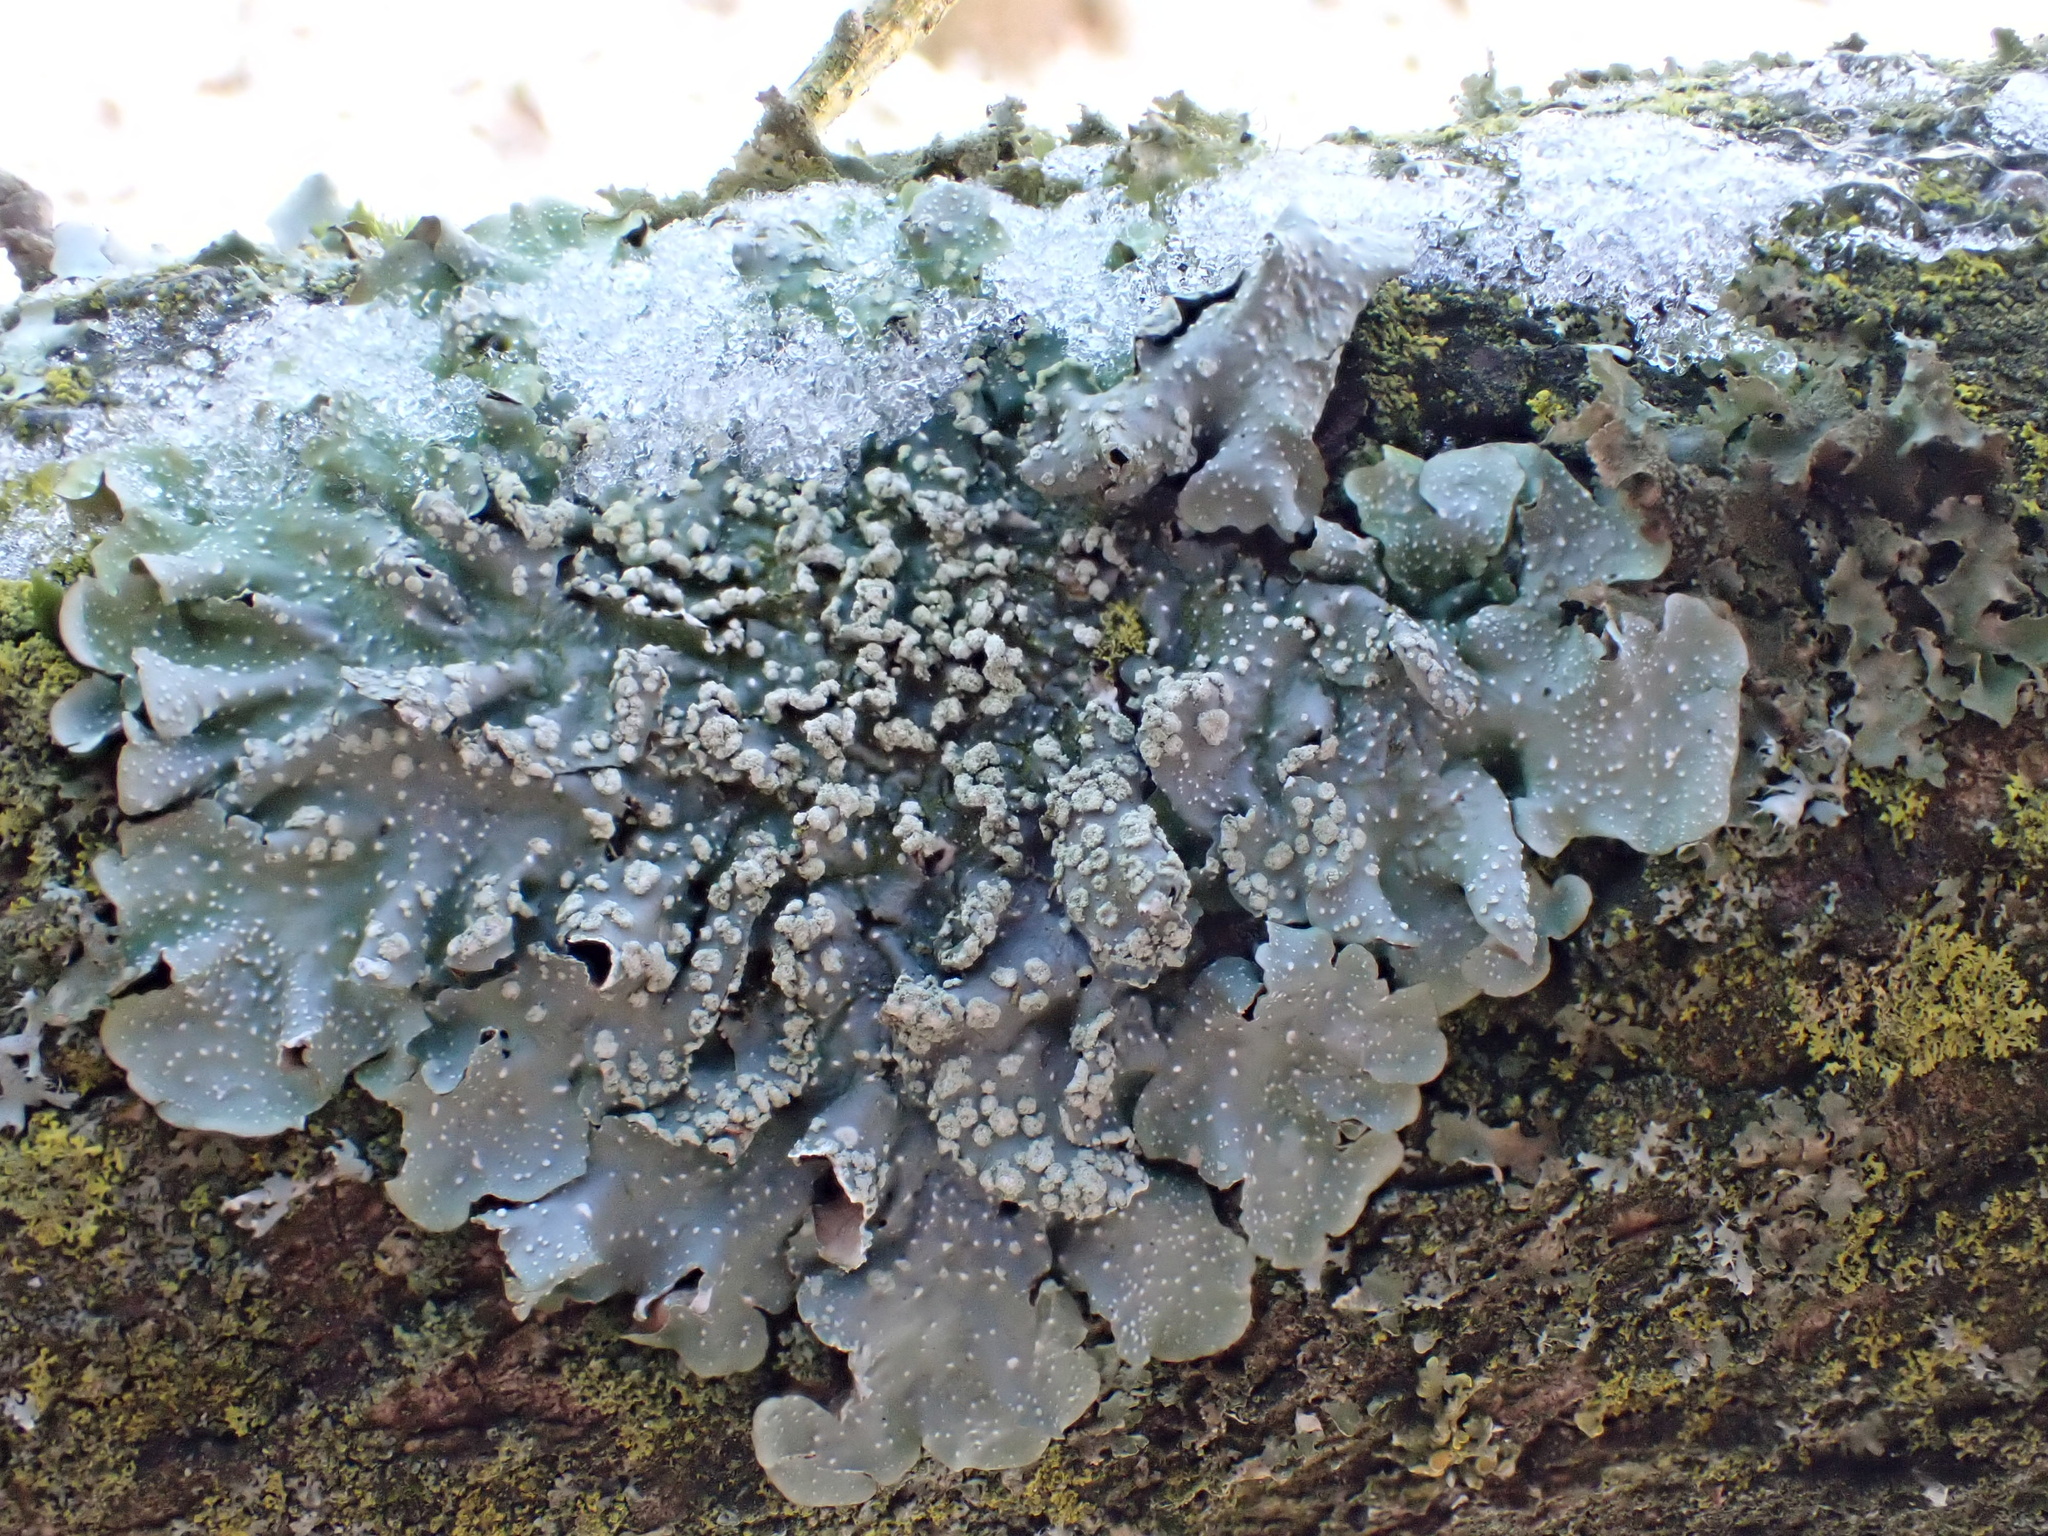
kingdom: Fungi
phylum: Ascomycota
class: Lecanoromycetes
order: Lecanorales
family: Parmeliaceae
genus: Punctelia
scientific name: Punctelia borreri
